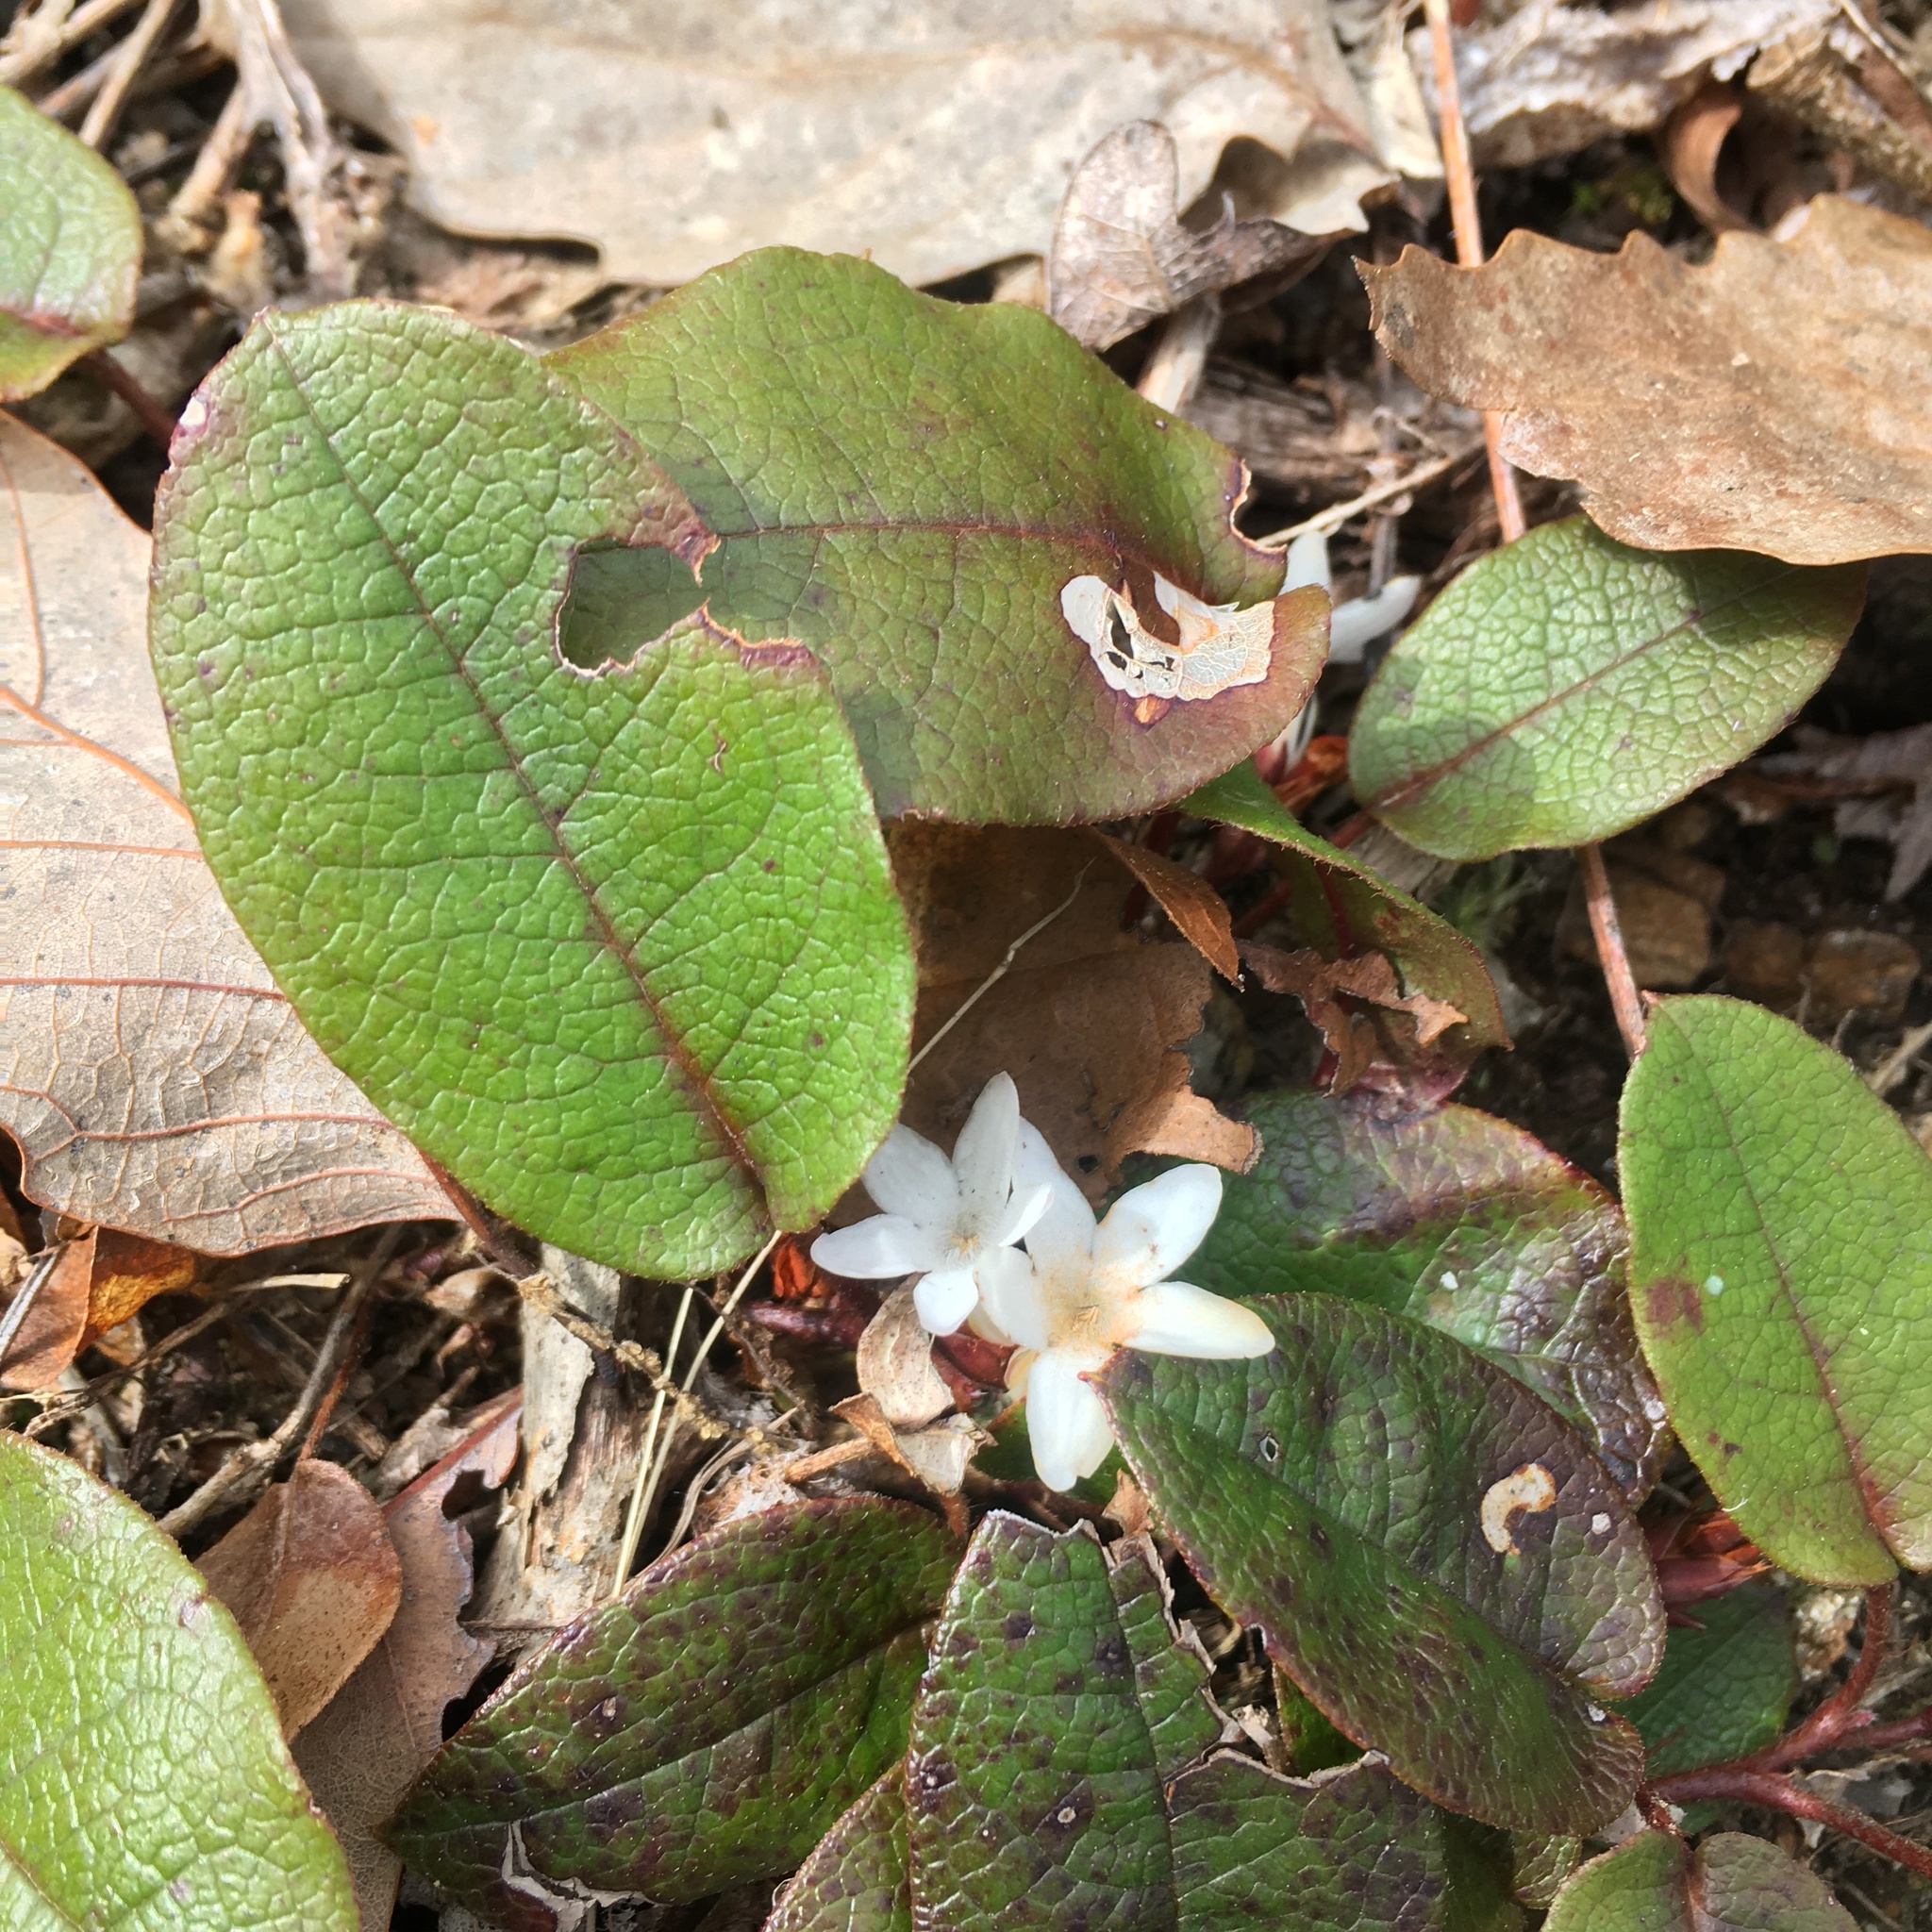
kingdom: Plantae
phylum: Tracheophyta
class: Magnoliopsida
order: Ericales
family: Ericaceae
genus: Epigaea
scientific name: Epigaea repens
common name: Gravelroot
